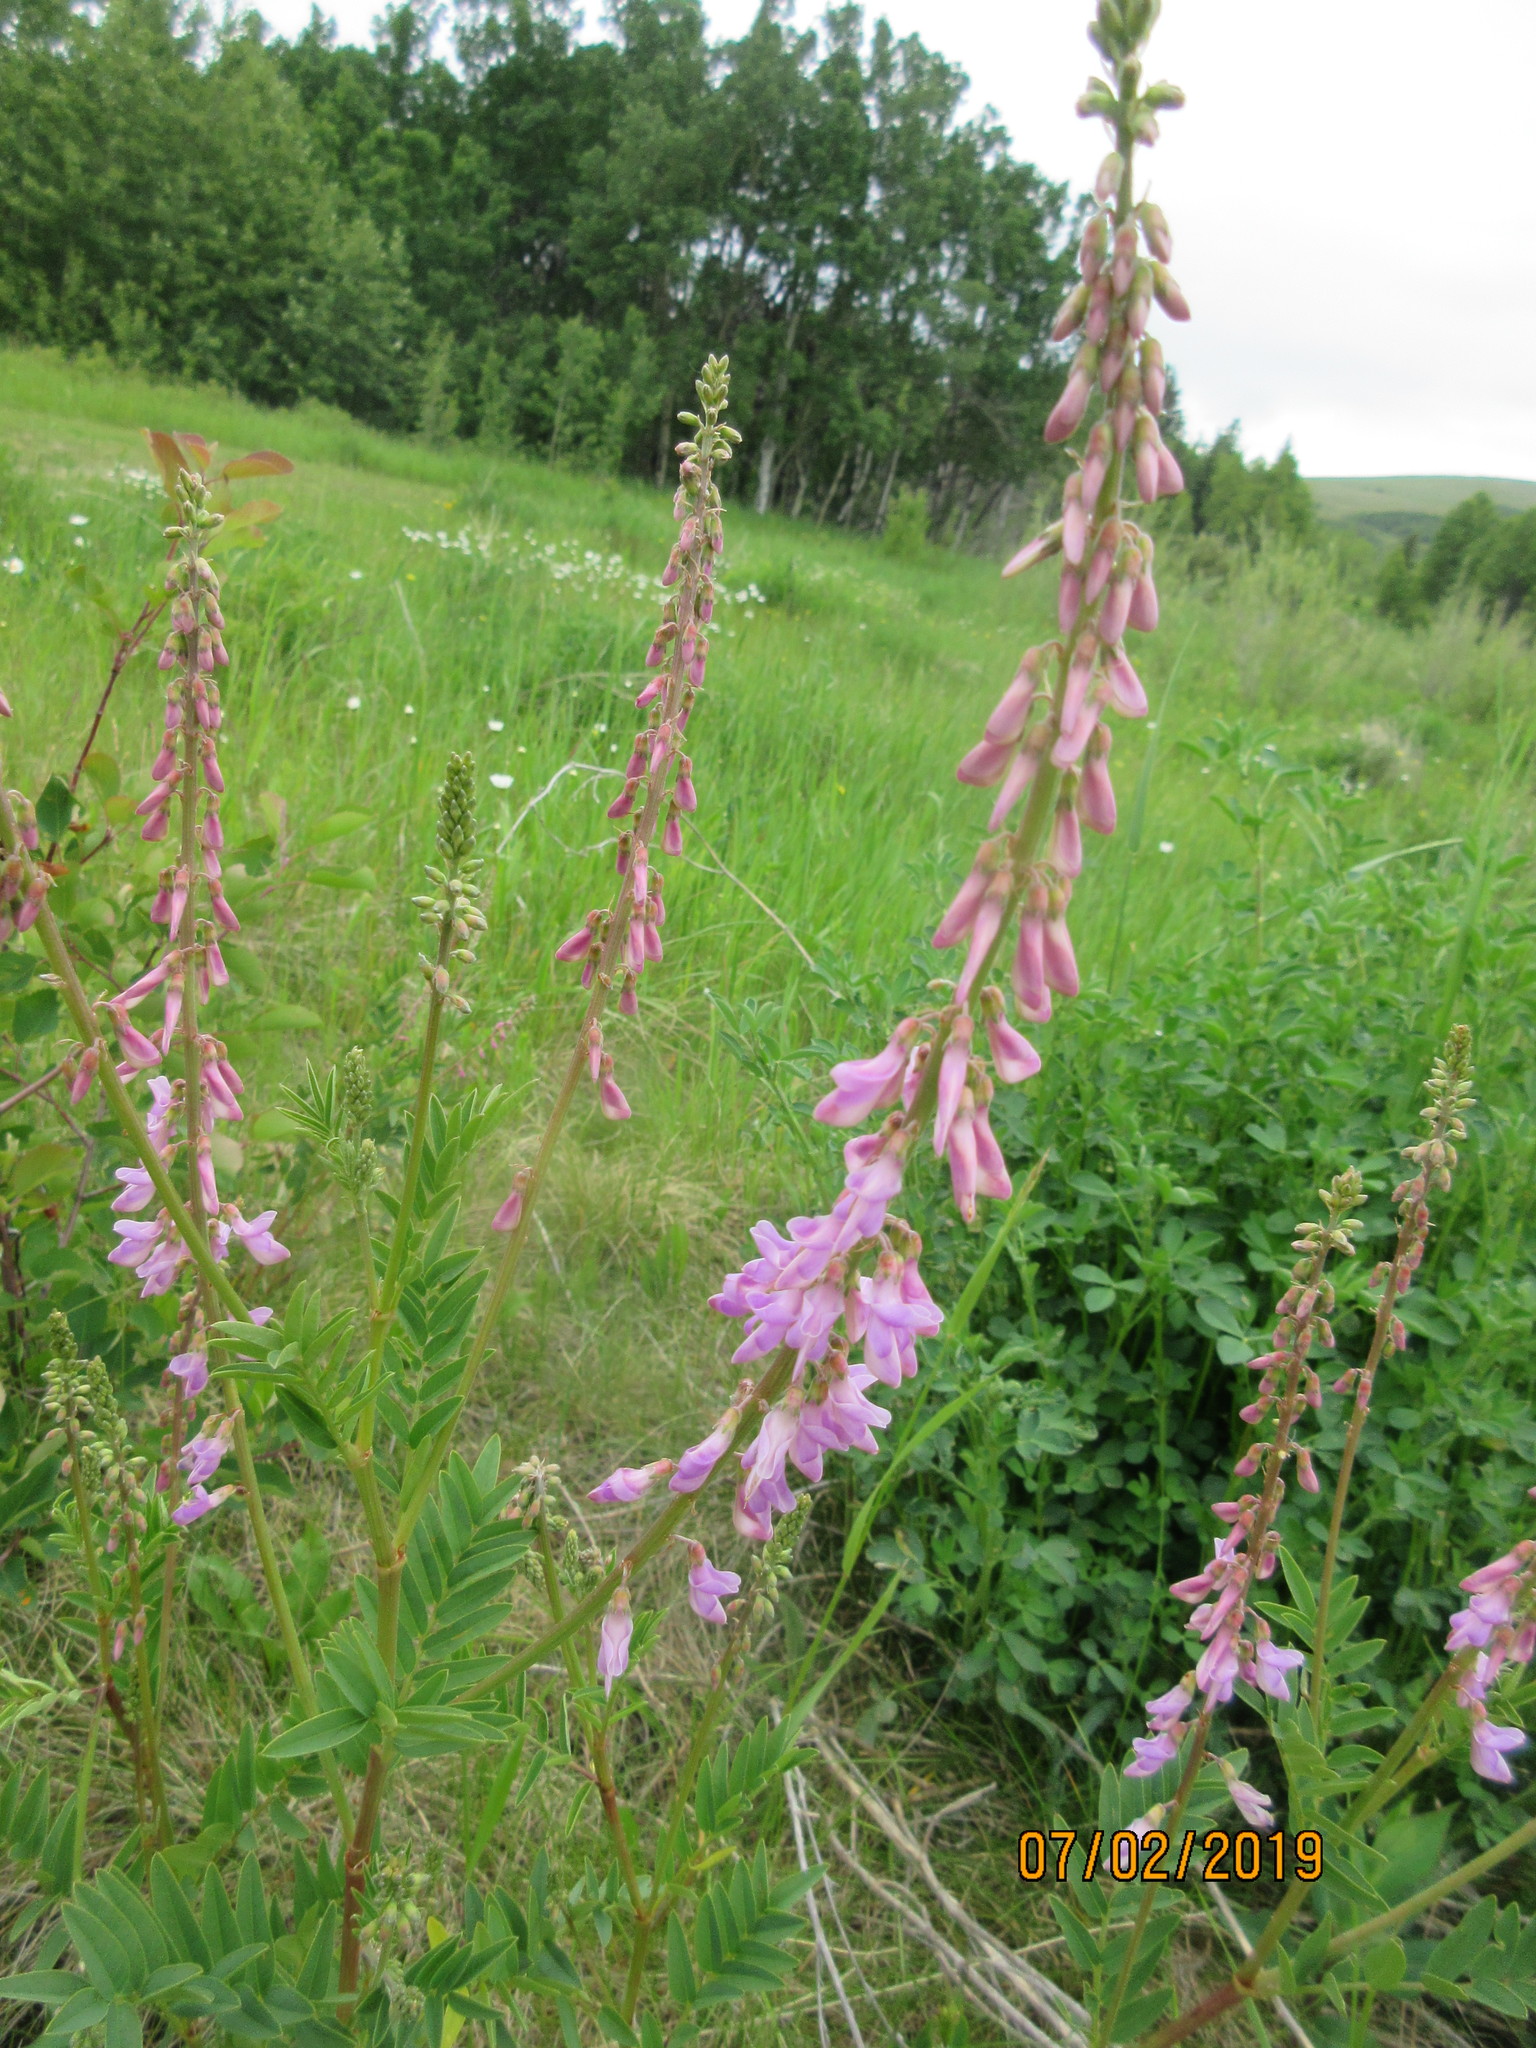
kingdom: Plantae
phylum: Tracheophyta
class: Magnoliopsida
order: Fabales
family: Fabaceae
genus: Hedysarum
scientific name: Hedysarum alpinum
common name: Alpine sweet-vetch
